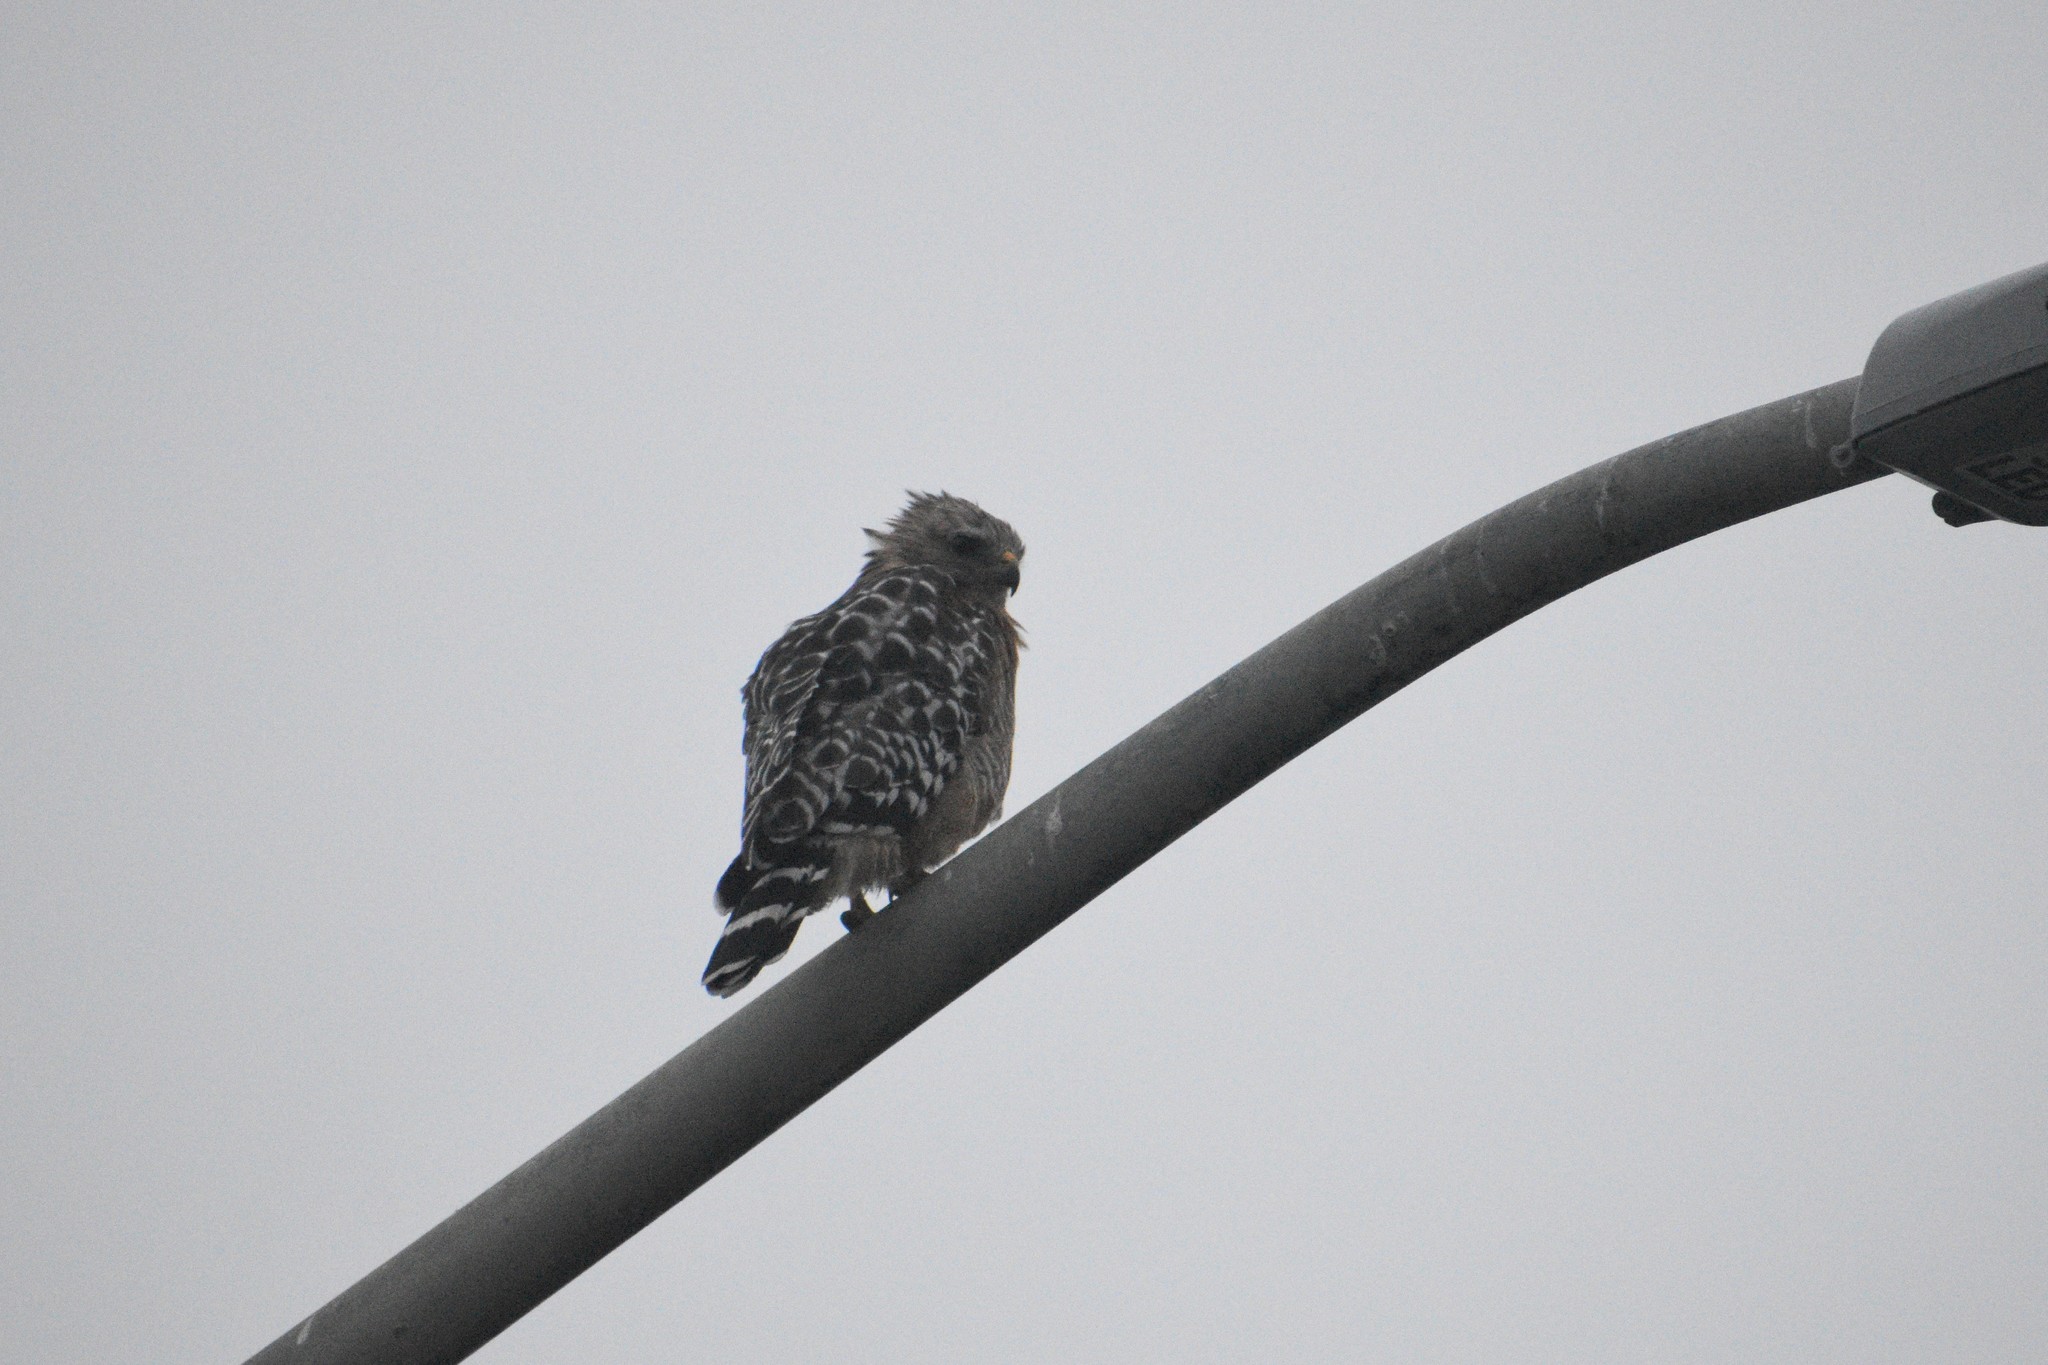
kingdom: Animalia
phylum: Chordata
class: Aves
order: Accipitriformes
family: Accipitridae
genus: Buteo
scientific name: Buteo lineatus
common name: Red-shouldered hawk
